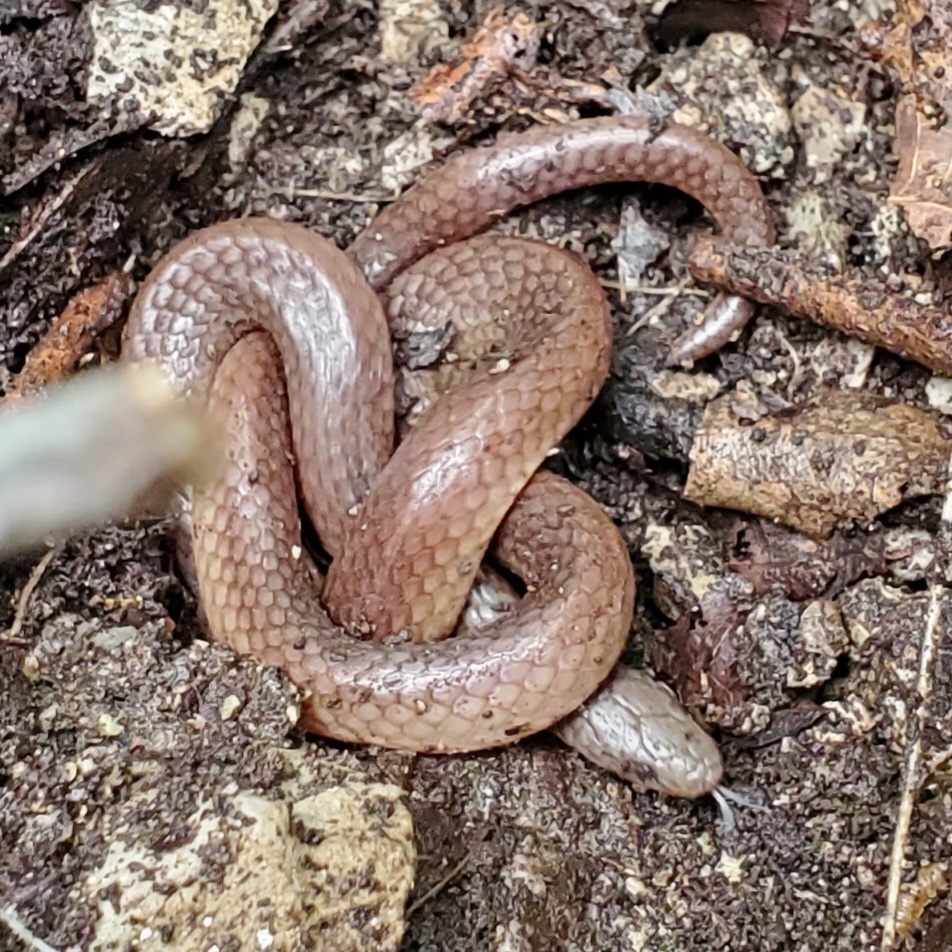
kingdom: Animalia
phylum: Chordata
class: Squamata
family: Colubridae
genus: Carphophis
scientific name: Carphophis amoenus
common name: Eastern worm snake
